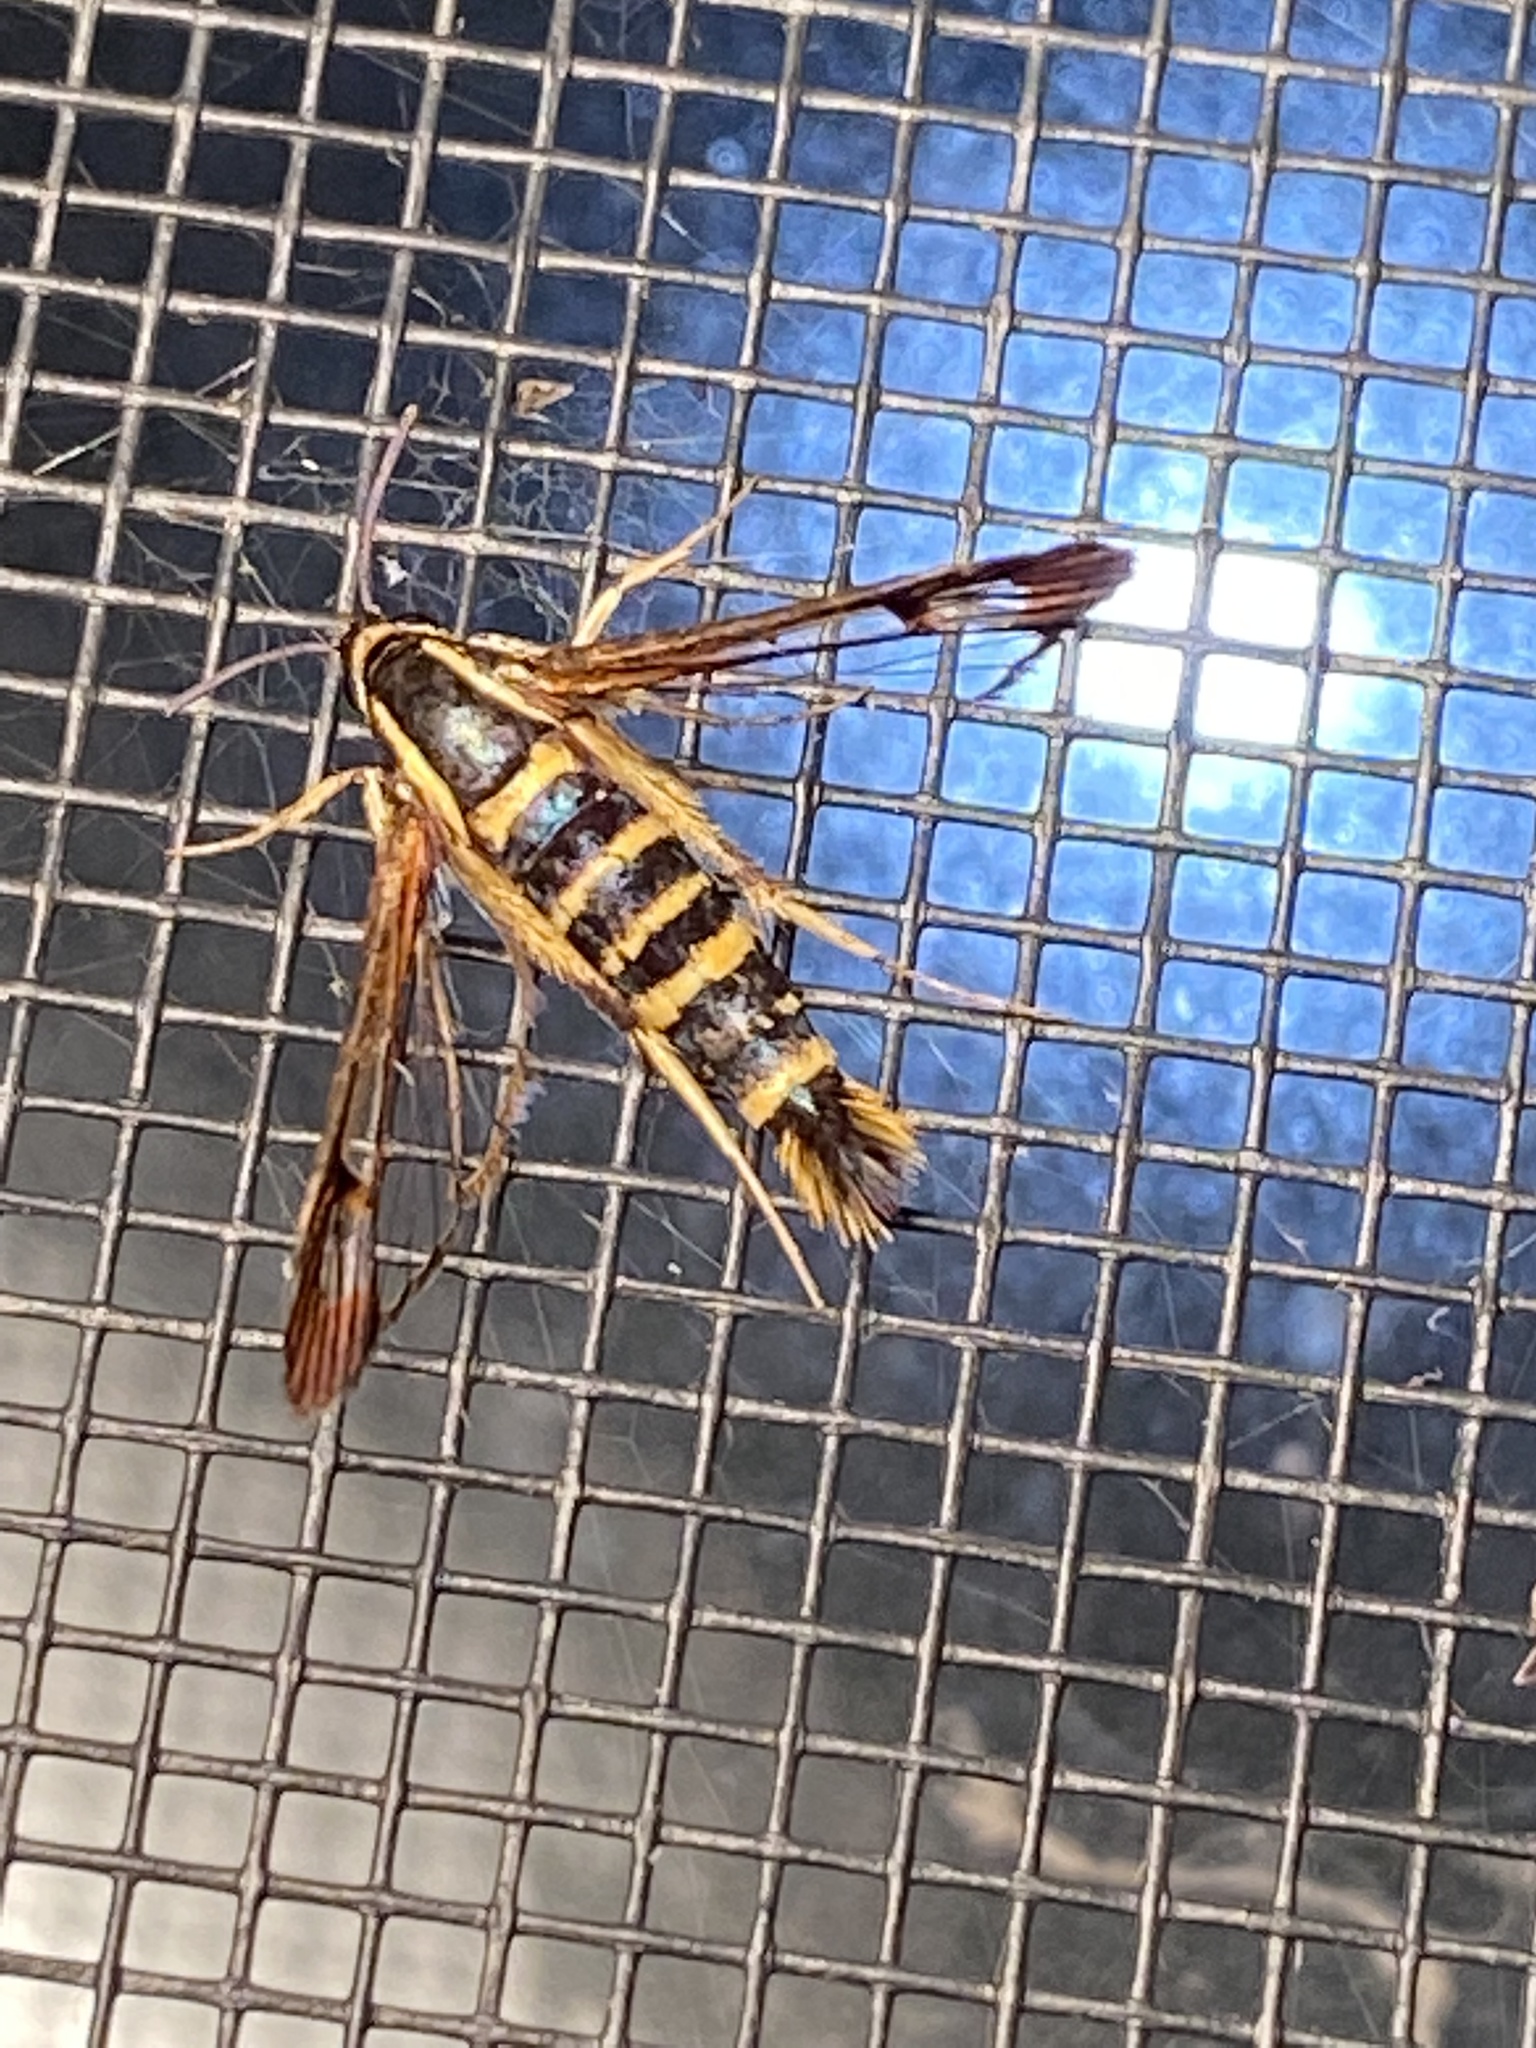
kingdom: Animalia
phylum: Arthropoda
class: Insecta
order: Lepidoptera
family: Sesiidae
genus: Synanthedon
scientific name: Synanthedon arkansasensis
